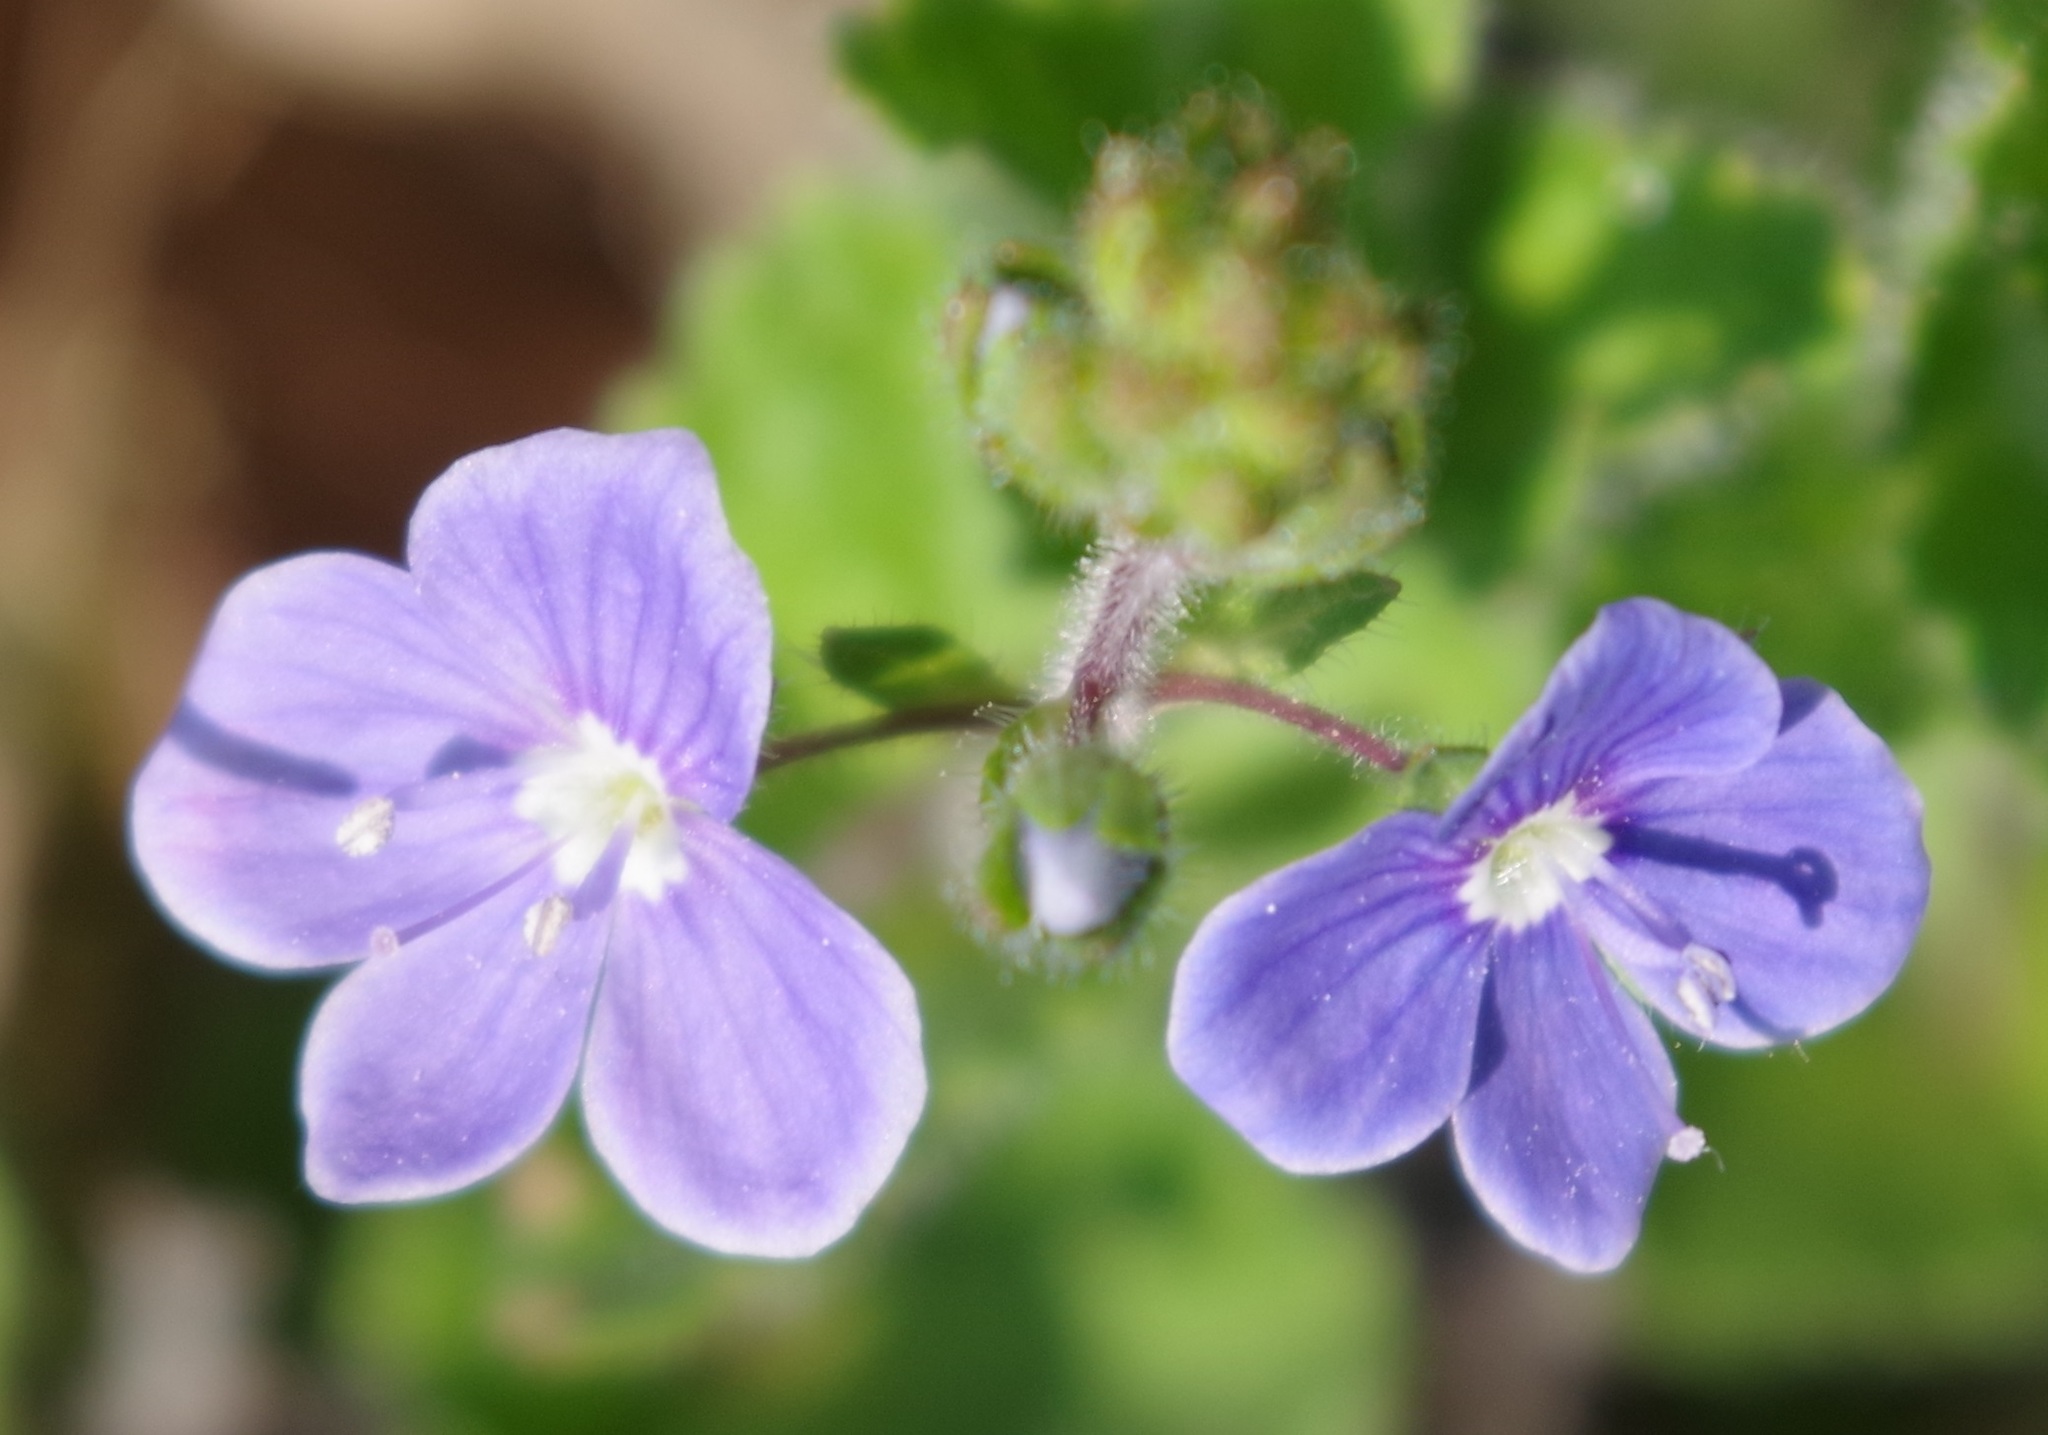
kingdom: Plantae
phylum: Tracheophyta
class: Magnoliopsida
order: Lamiales
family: Plantaginaceae
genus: Veronica
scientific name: Veronica chamaedrys
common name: Germander speedwell
